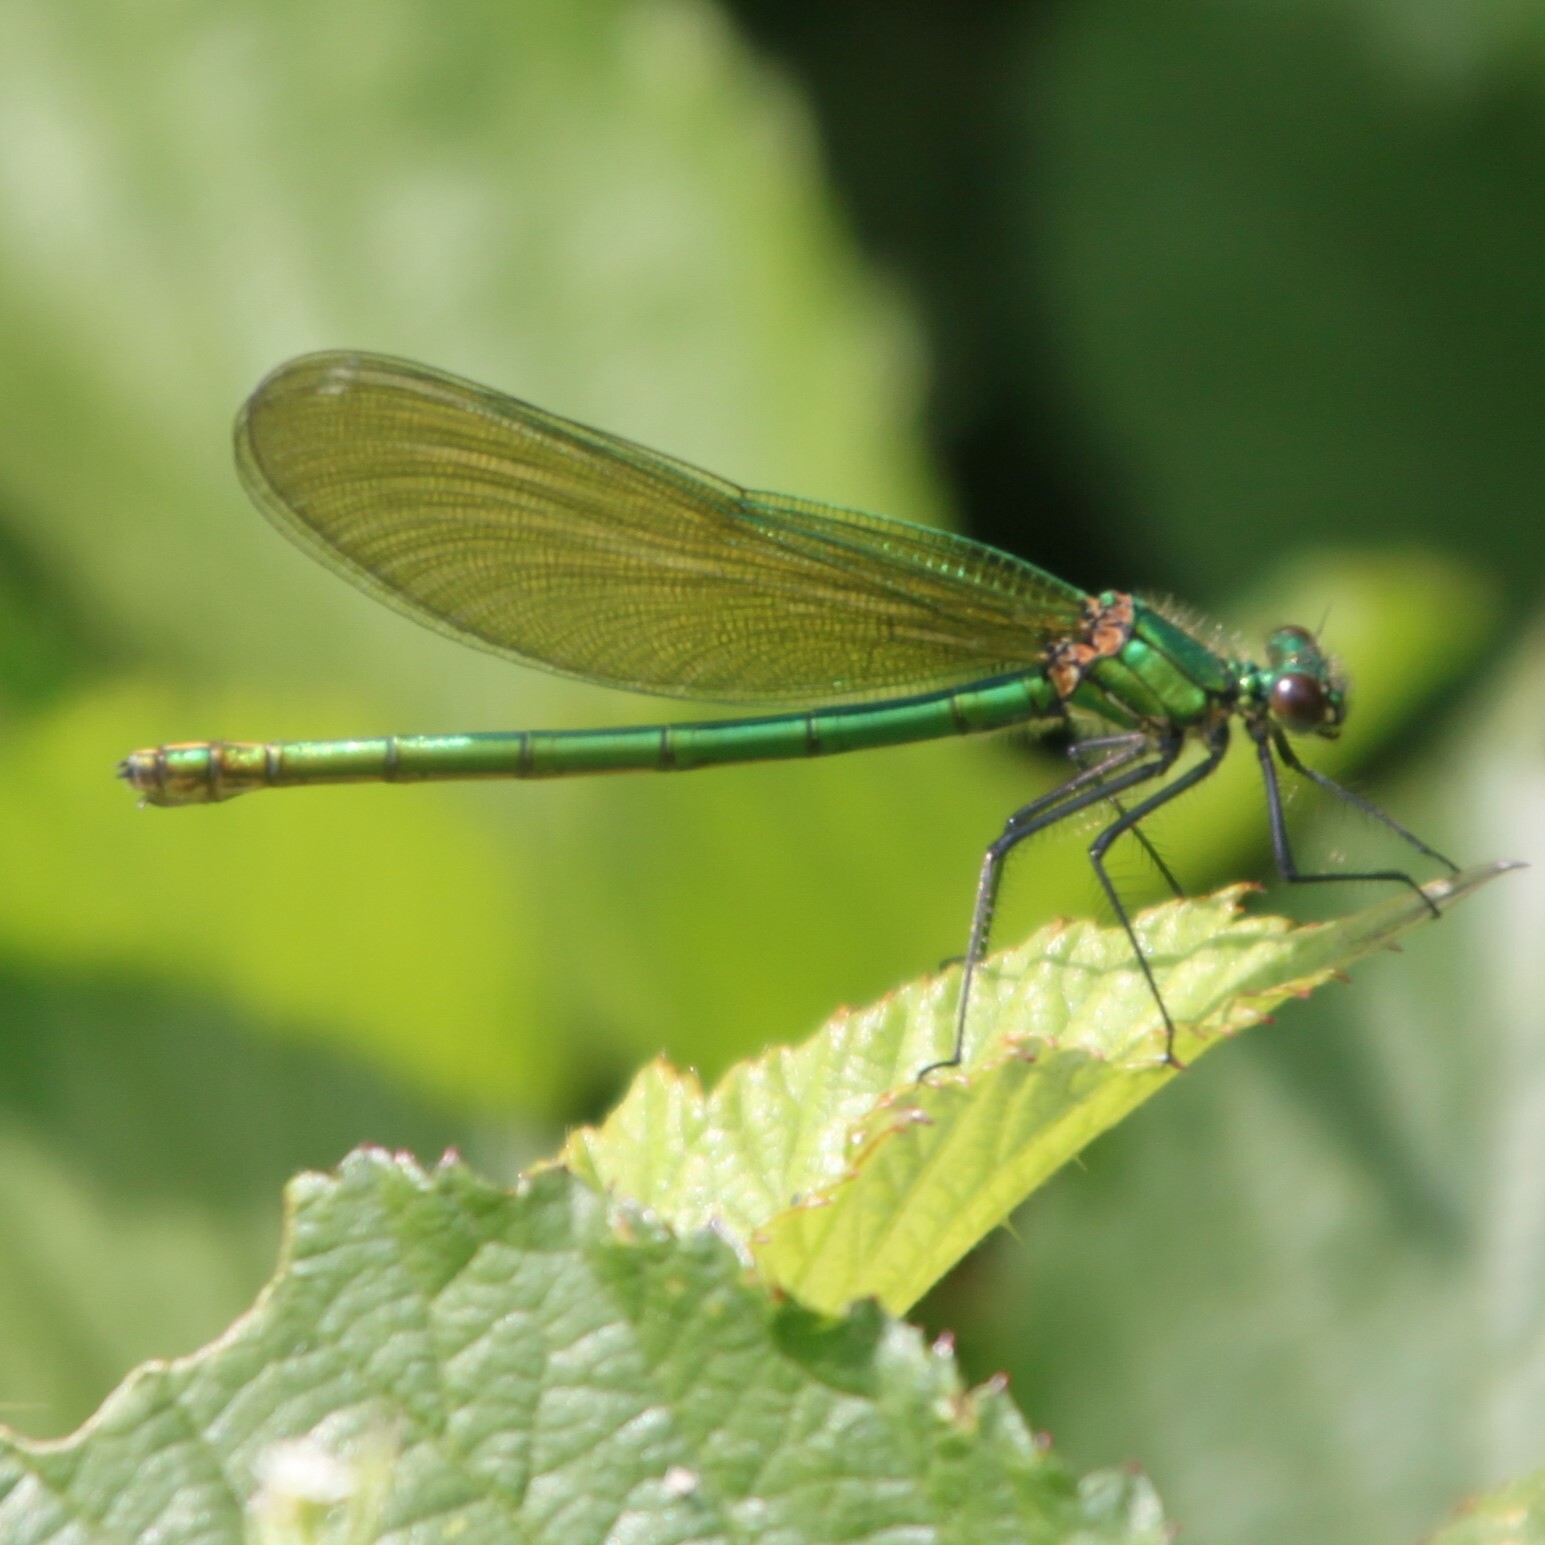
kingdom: Animalia
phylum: Arthropoda
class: Insecta
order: Odonata
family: Calopterygidae
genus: Calopteryx
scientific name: Calopteryx splendens
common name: Banded demoiselle
